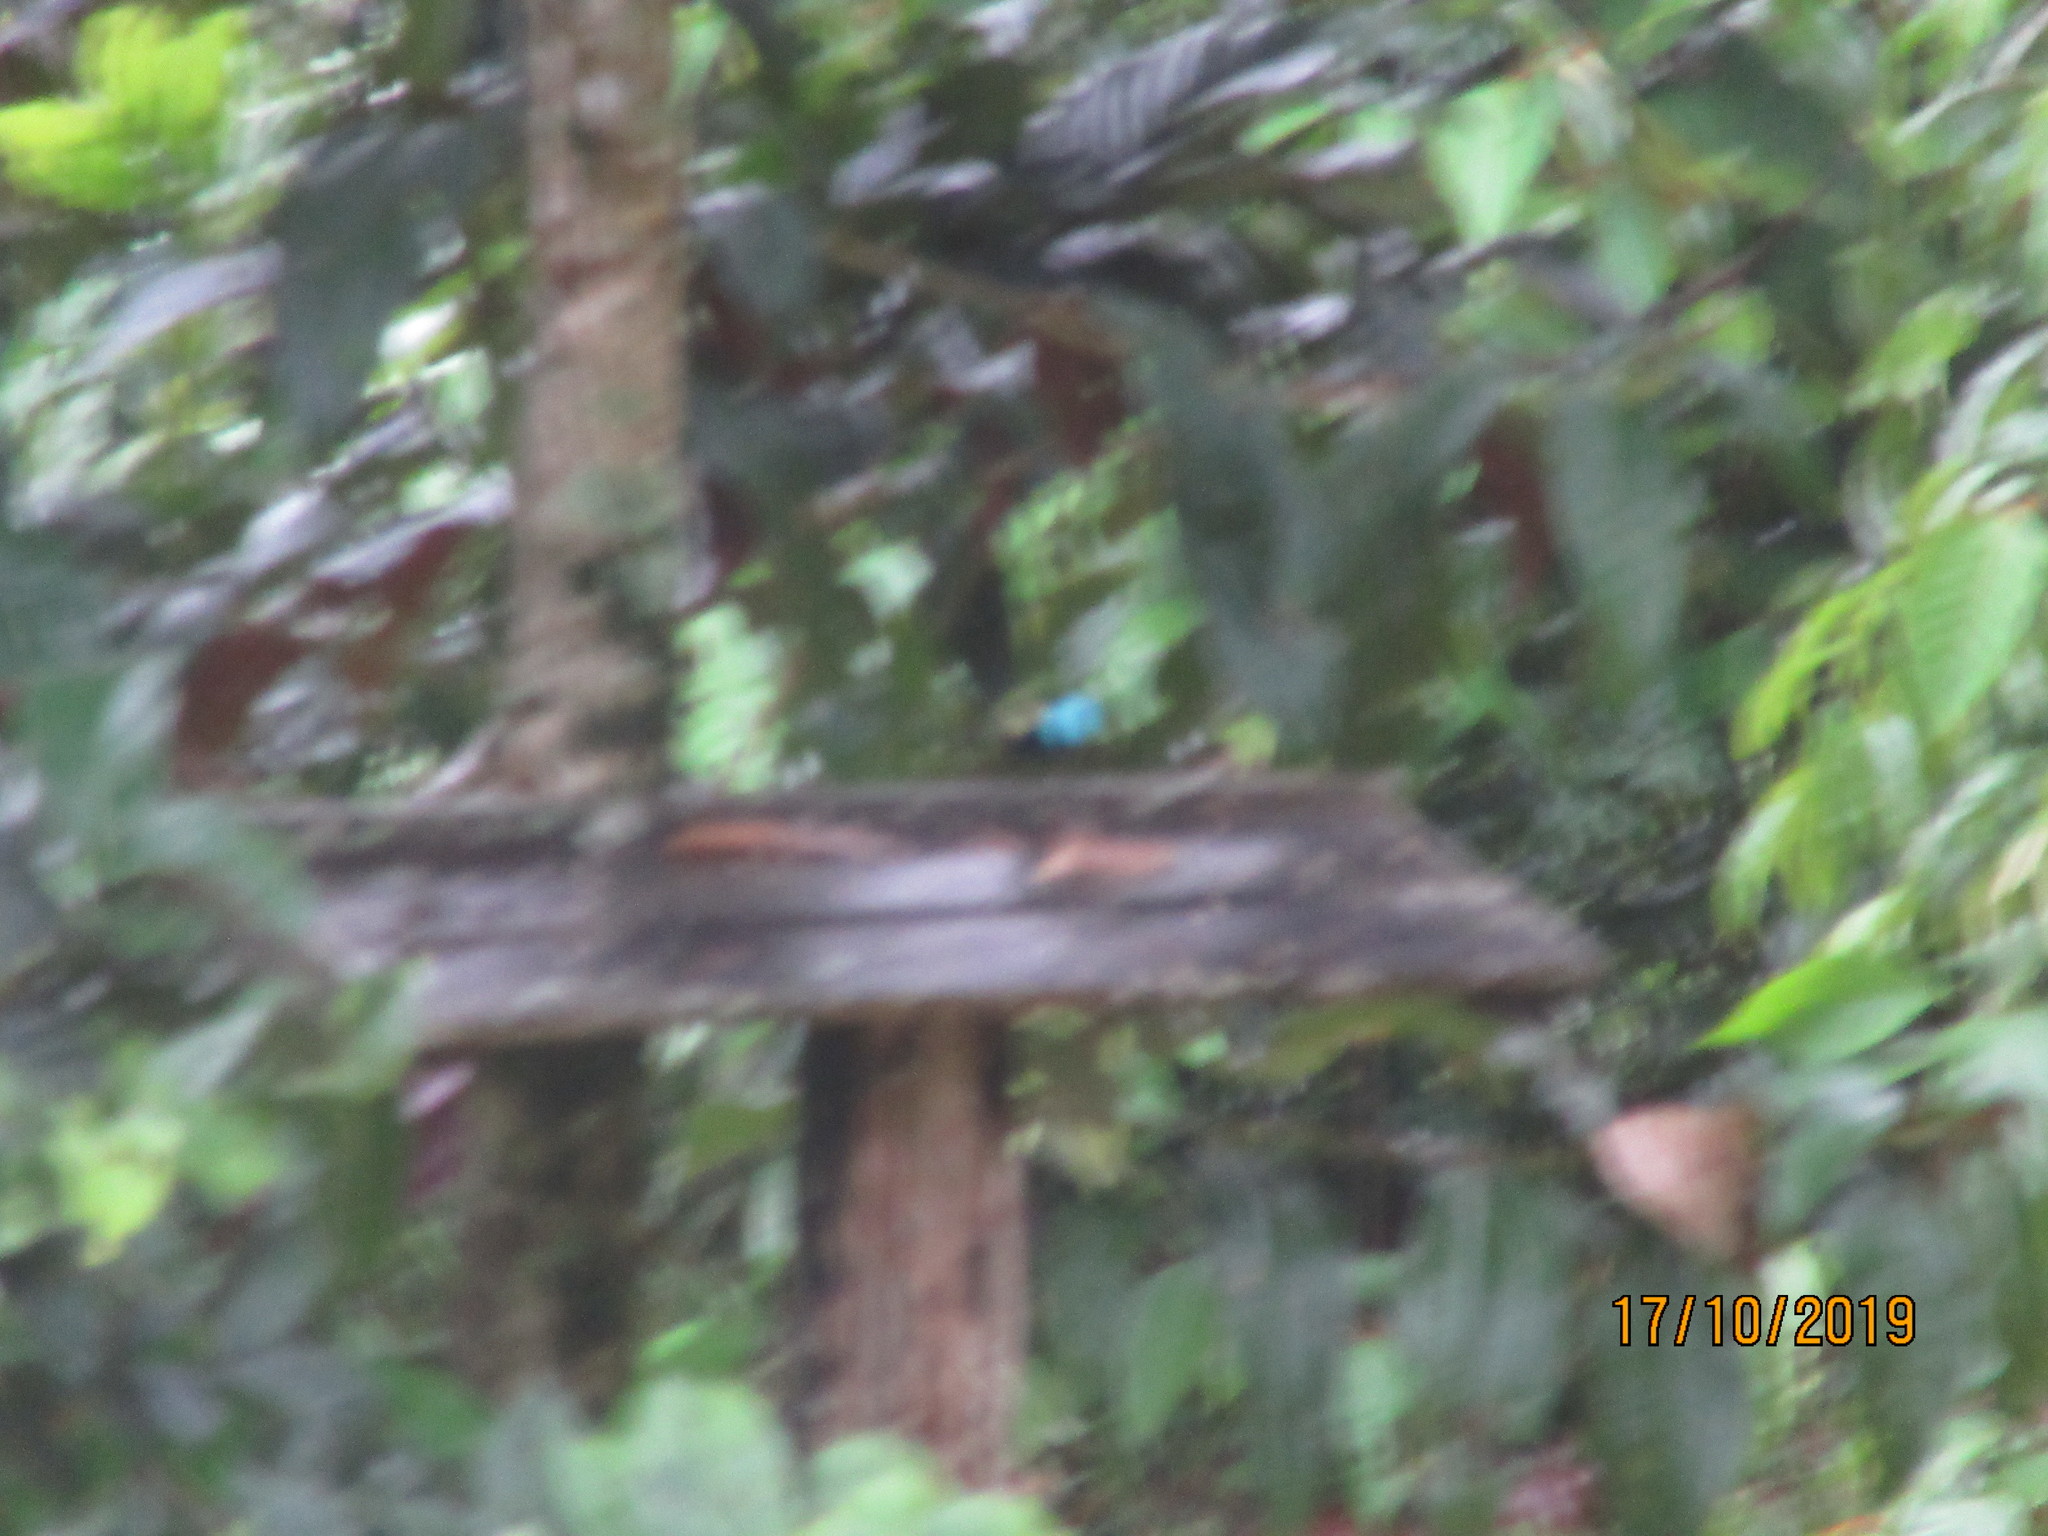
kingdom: Animalia
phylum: Chordata
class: Aves
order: Passeriformes
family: Thraupidae
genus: Stilpnia
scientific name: Stilpnia cyanicollis
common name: Blue-necked tanager
